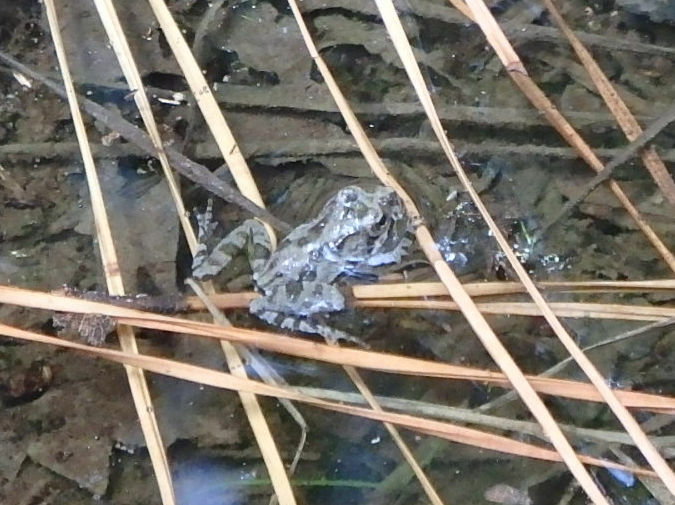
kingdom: Animalia
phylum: Chordata
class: Amphibia
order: Anura
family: Hylidae
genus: Acris
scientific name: Acris crepitans
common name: Northern cricket frog
